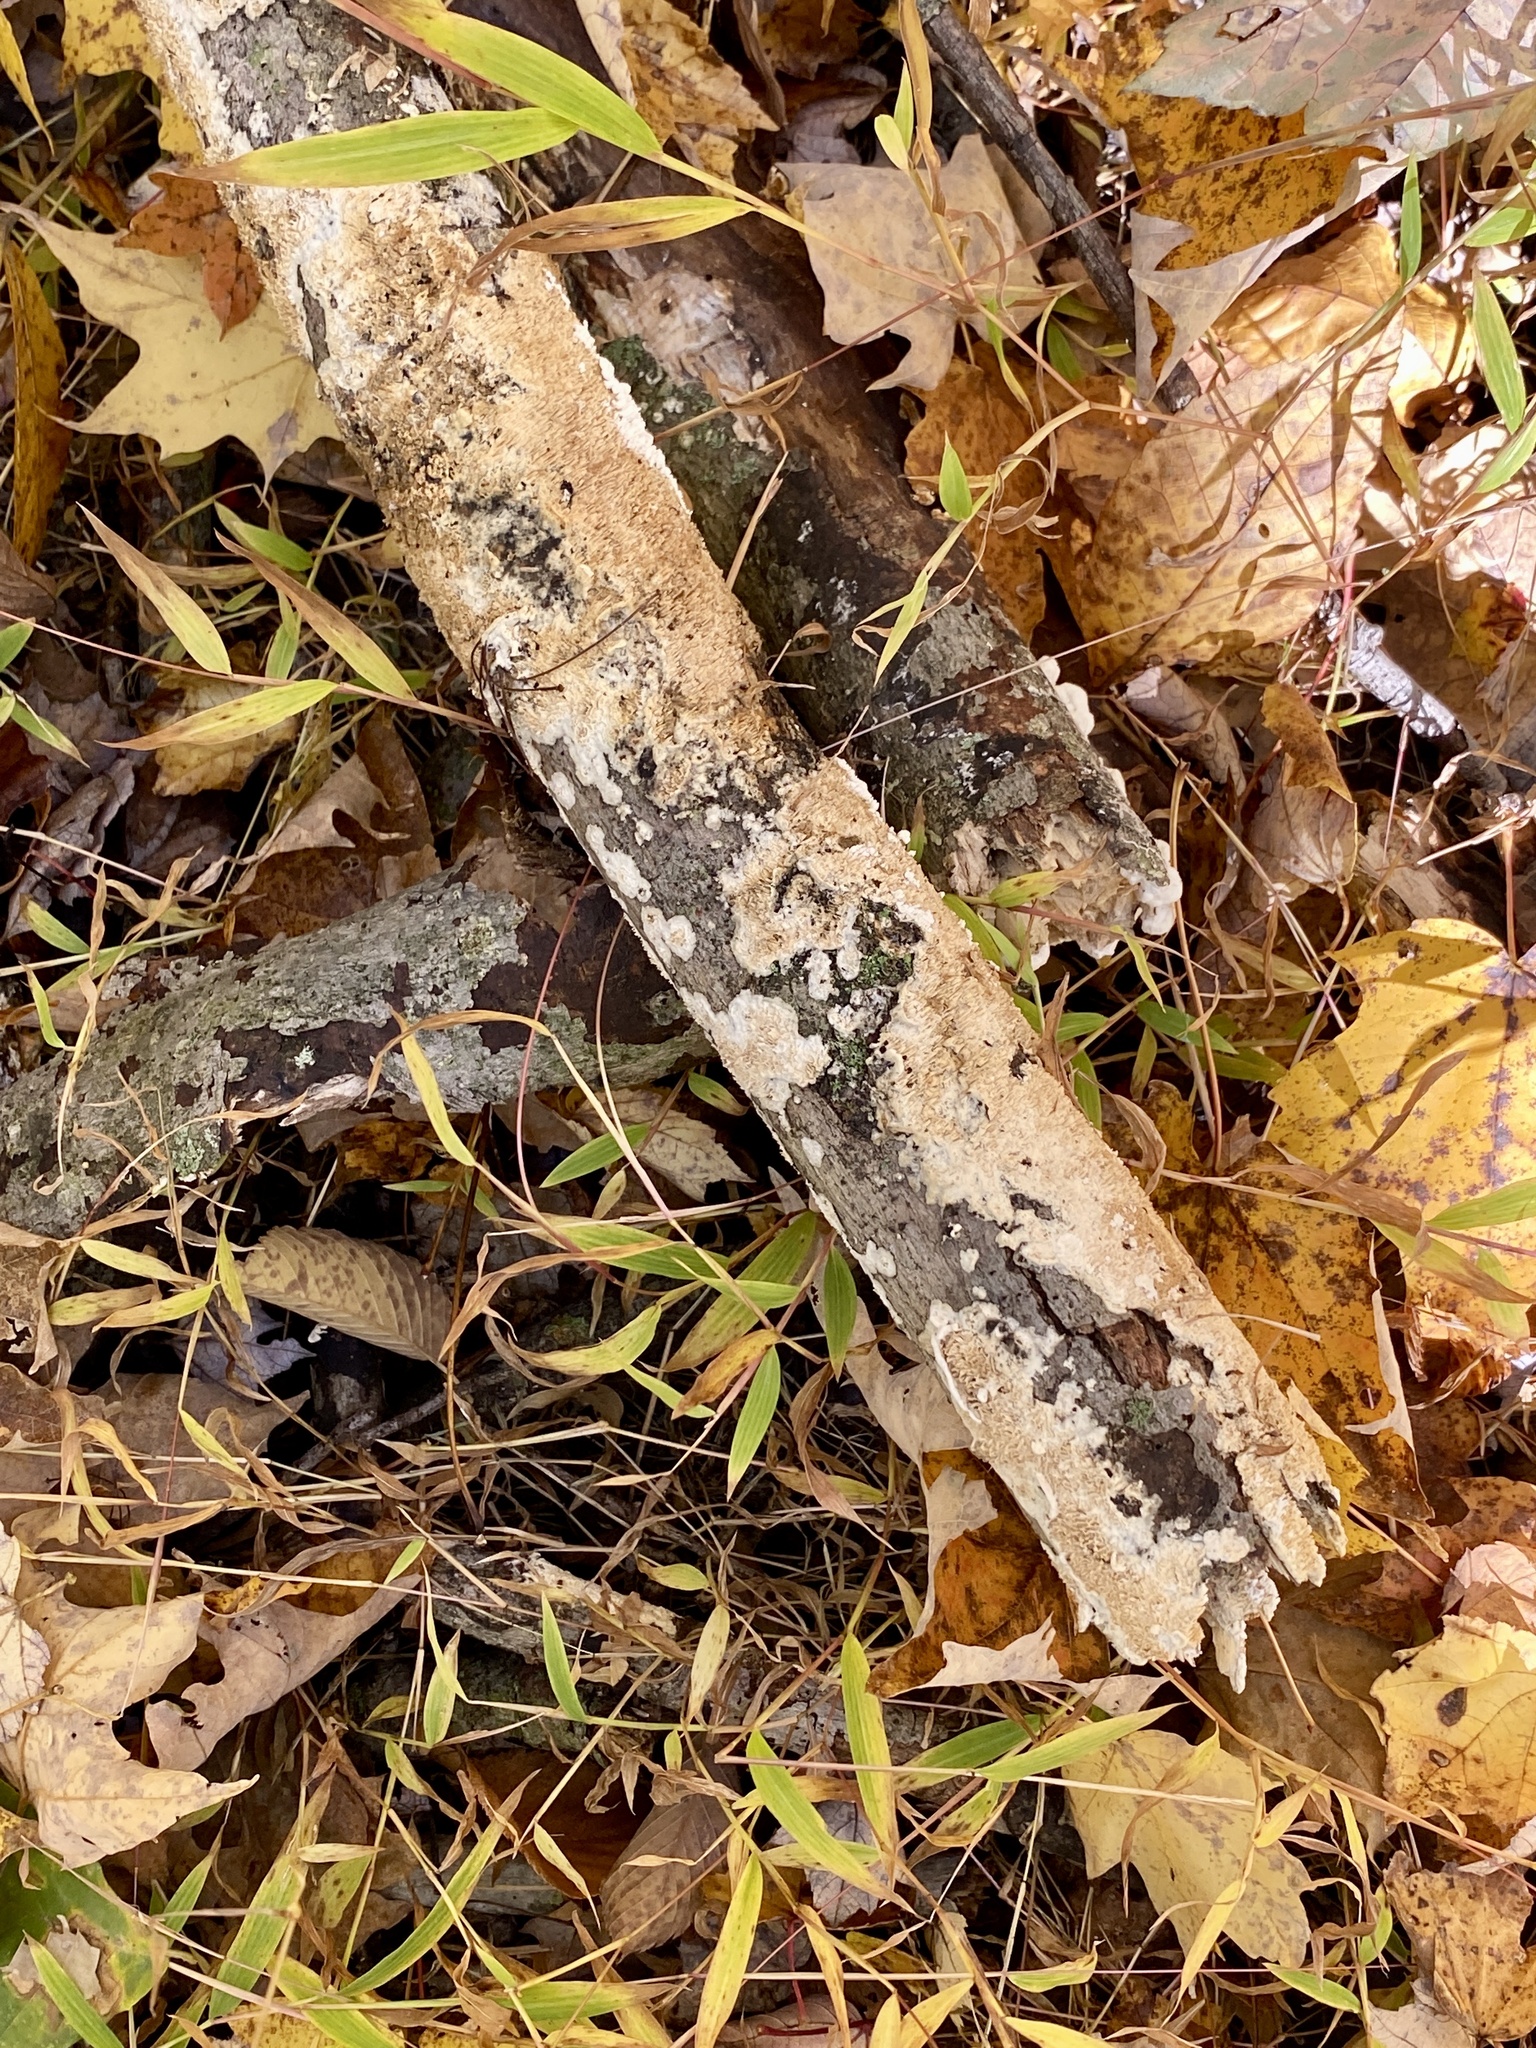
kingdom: Fungi
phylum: Basidiomycota
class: Agaricomycetes
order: Polyporales
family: Irpicaceae
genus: Irpex
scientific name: Irpex lacteus
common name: Milk-white toothed polypore
